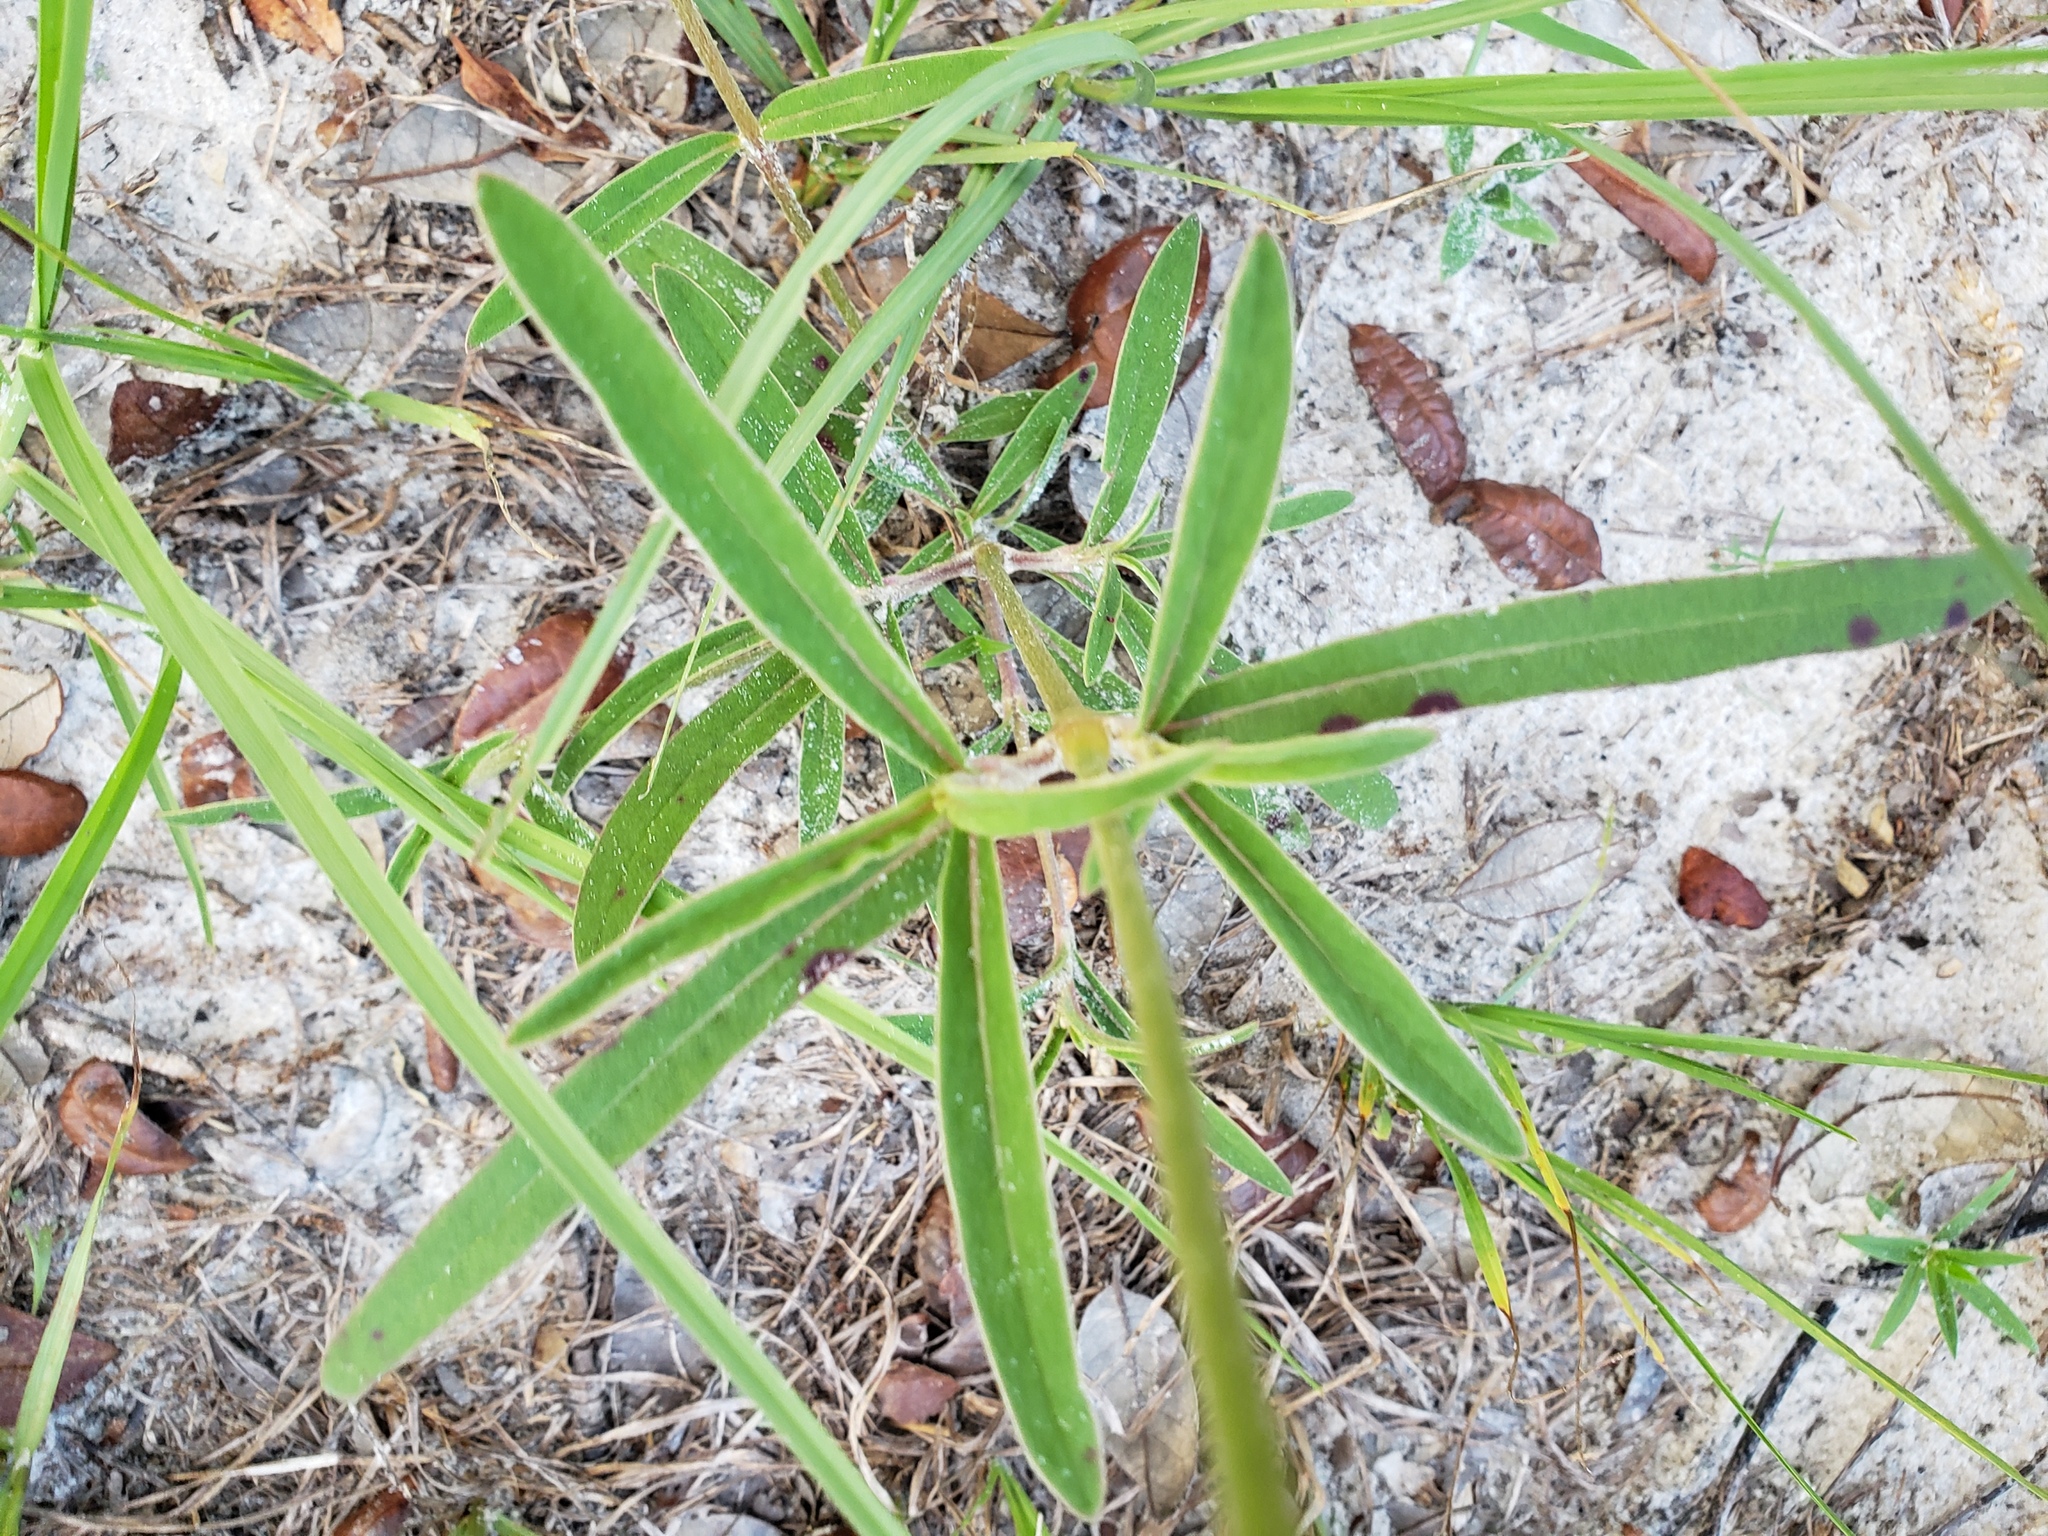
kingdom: Plantae
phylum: Tracheophyta
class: Magnoliopsida
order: Caryophyllales
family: Amaranthaceae
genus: Froelichia
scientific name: Froelichia floridana
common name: Florida snake-cotton
